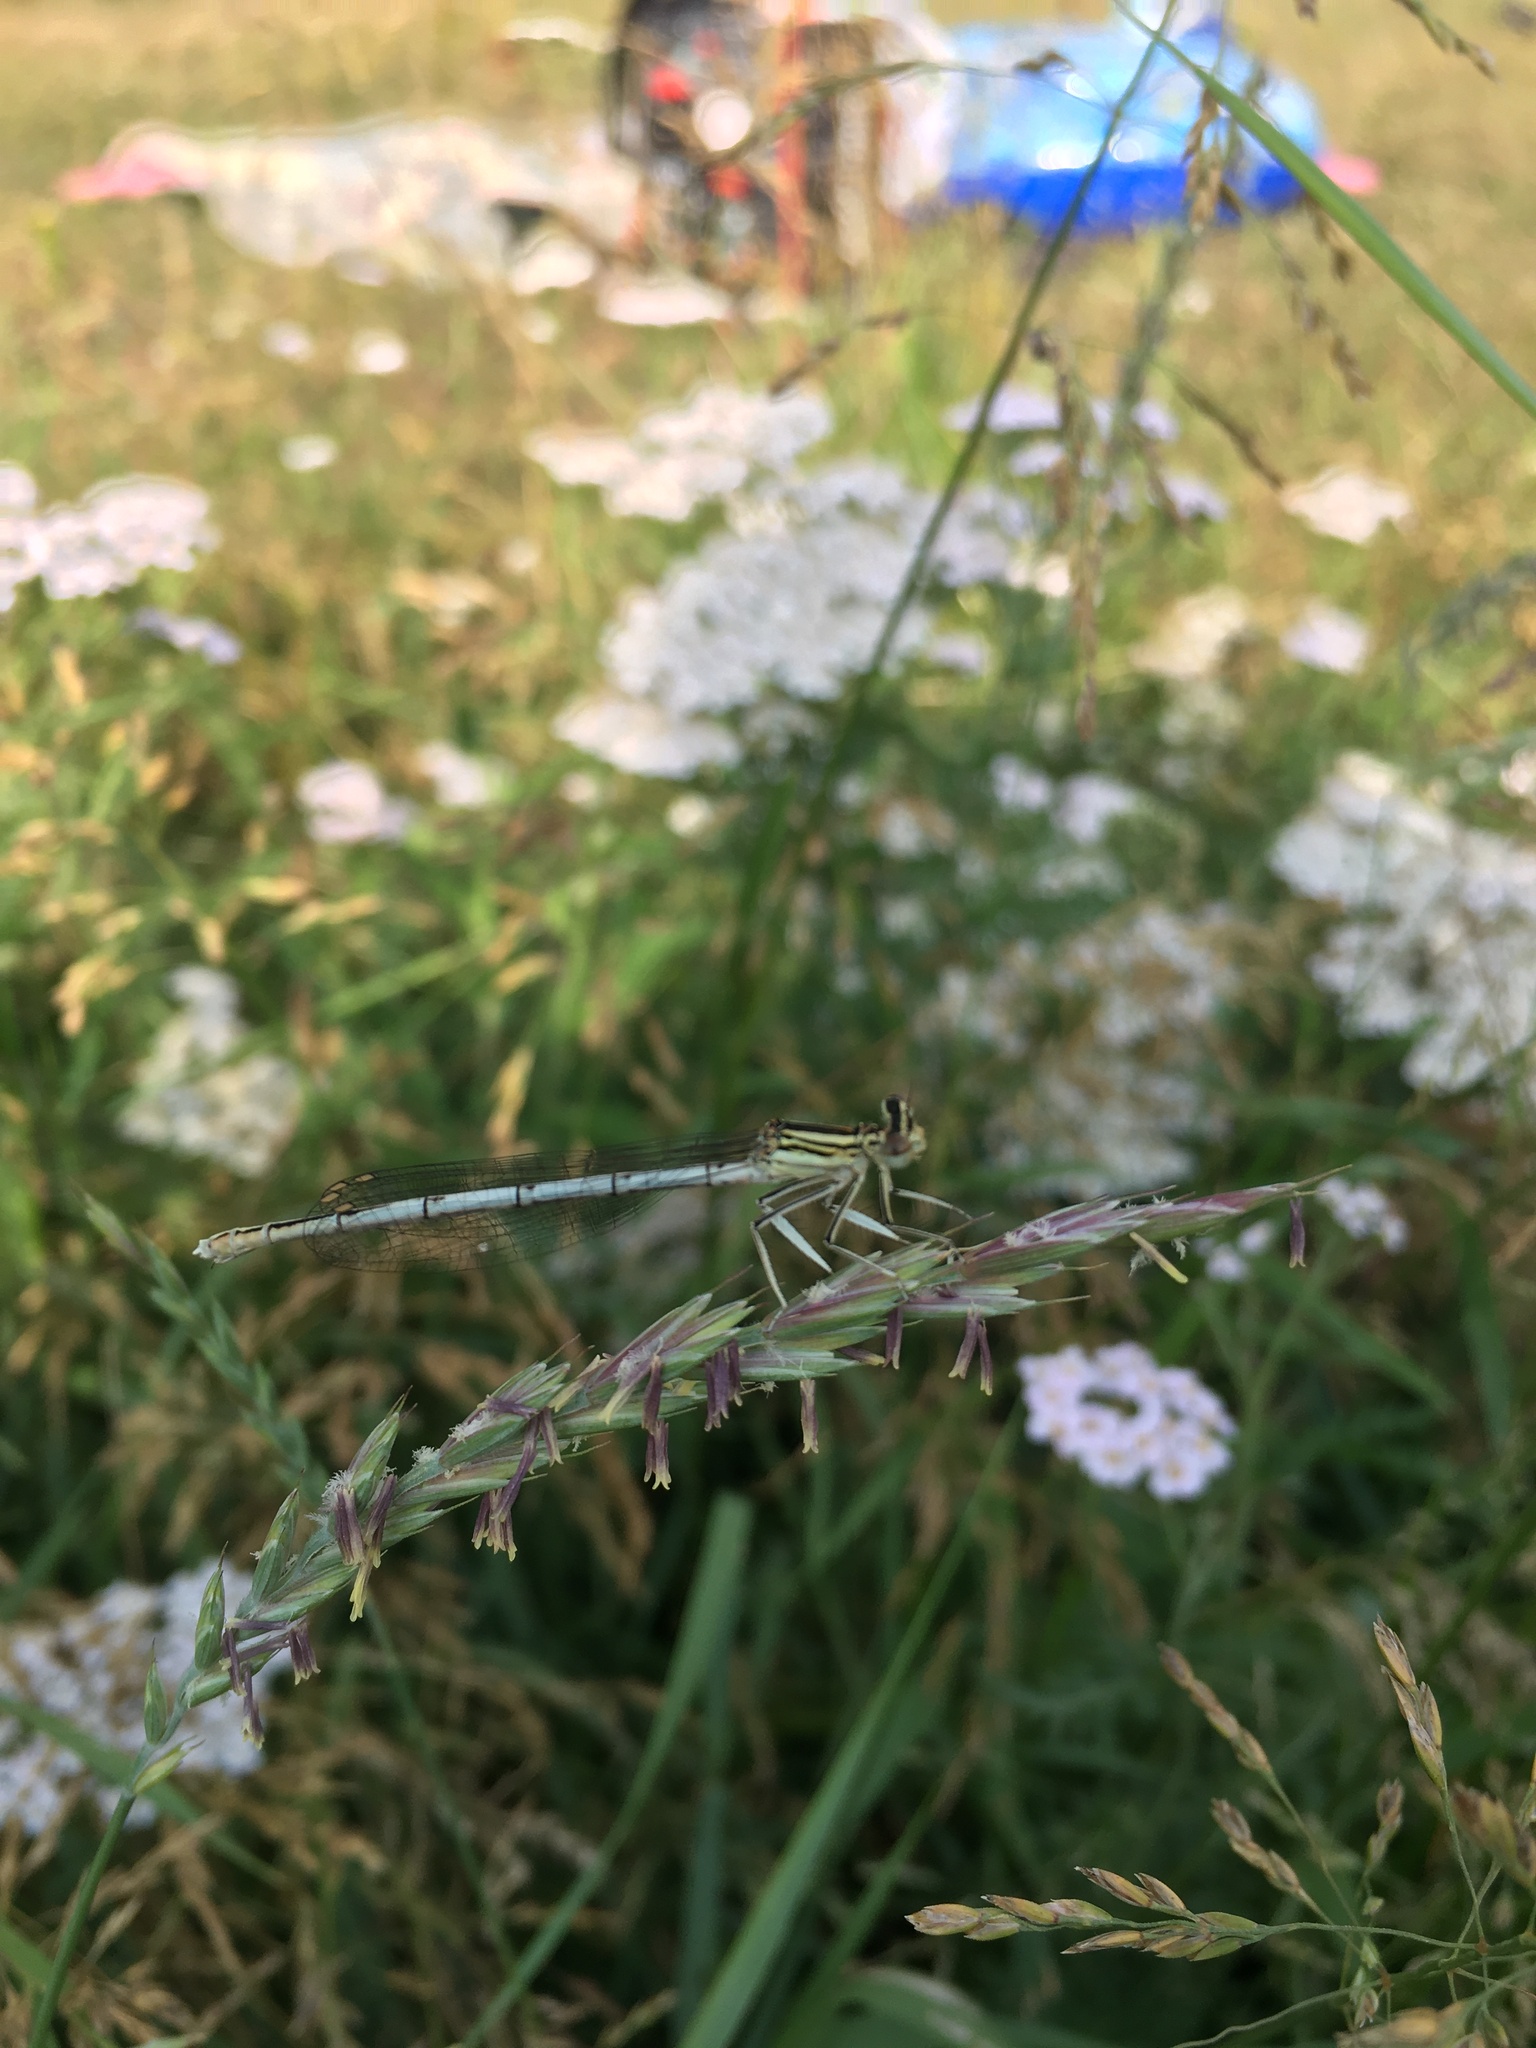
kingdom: Animalia
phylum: Arthropoda
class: Insecta
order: Odonata
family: Platycnemididae
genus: Platycnemis
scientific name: Platycnemis pennipes
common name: White-legged damselfly
